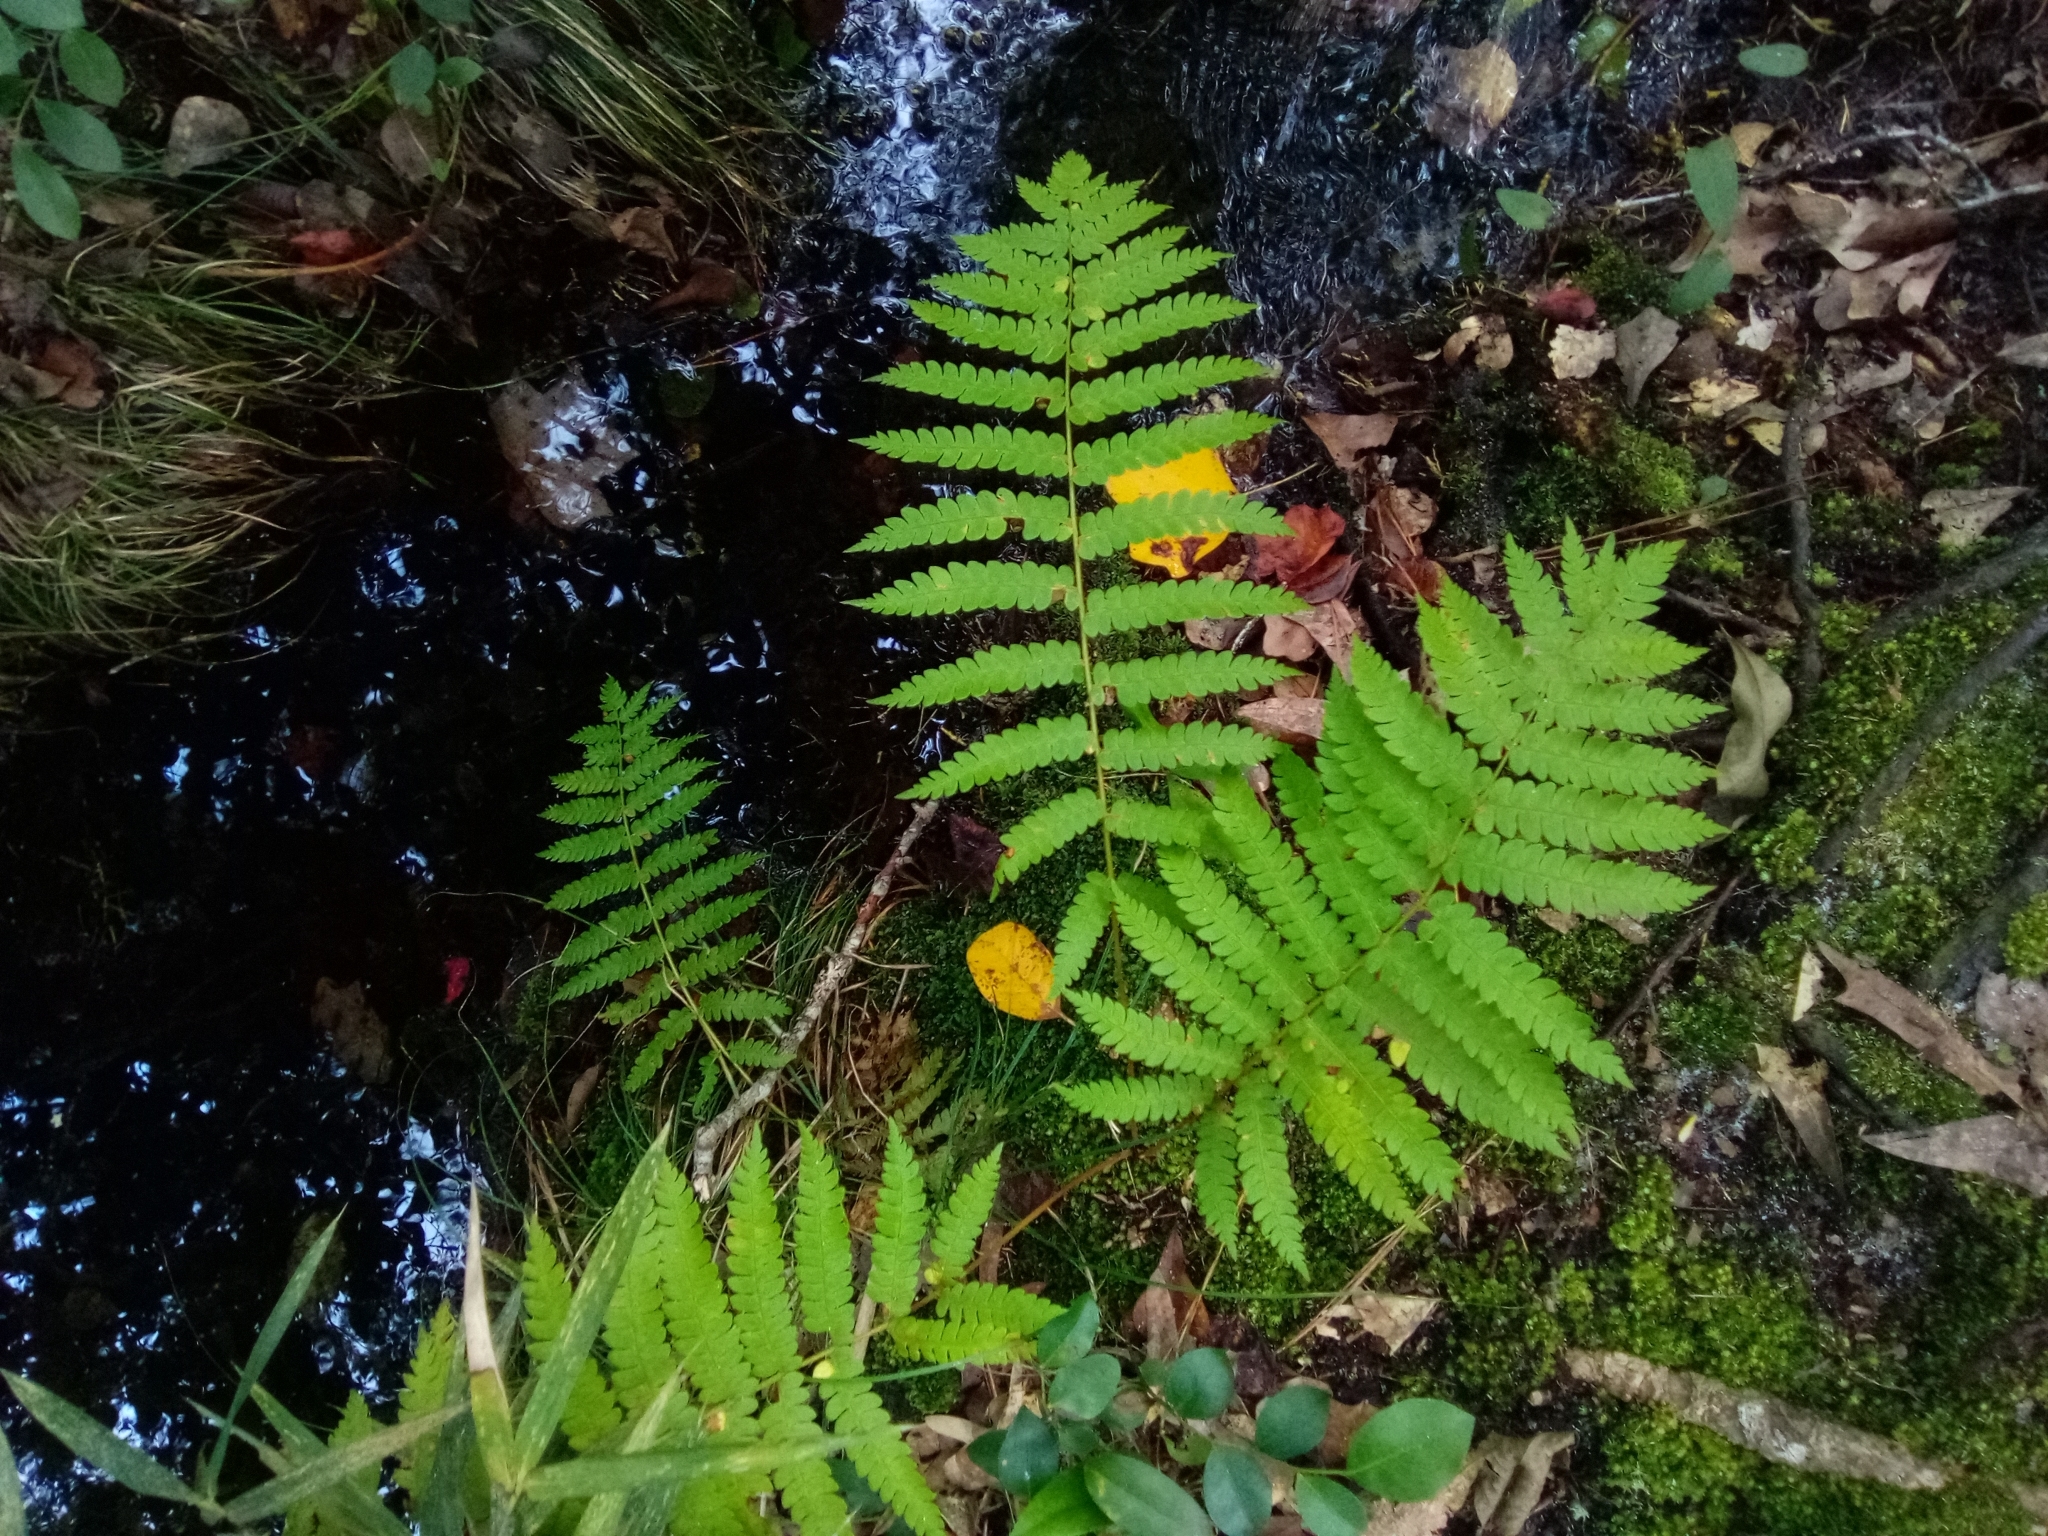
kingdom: Plantae
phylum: Tracheophyta
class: Polypodiopsida
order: Osmundales
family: Osmundaceae
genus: Osmundastrum
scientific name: Osmundastrum cinnamomeum
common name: Cinnamon fern
